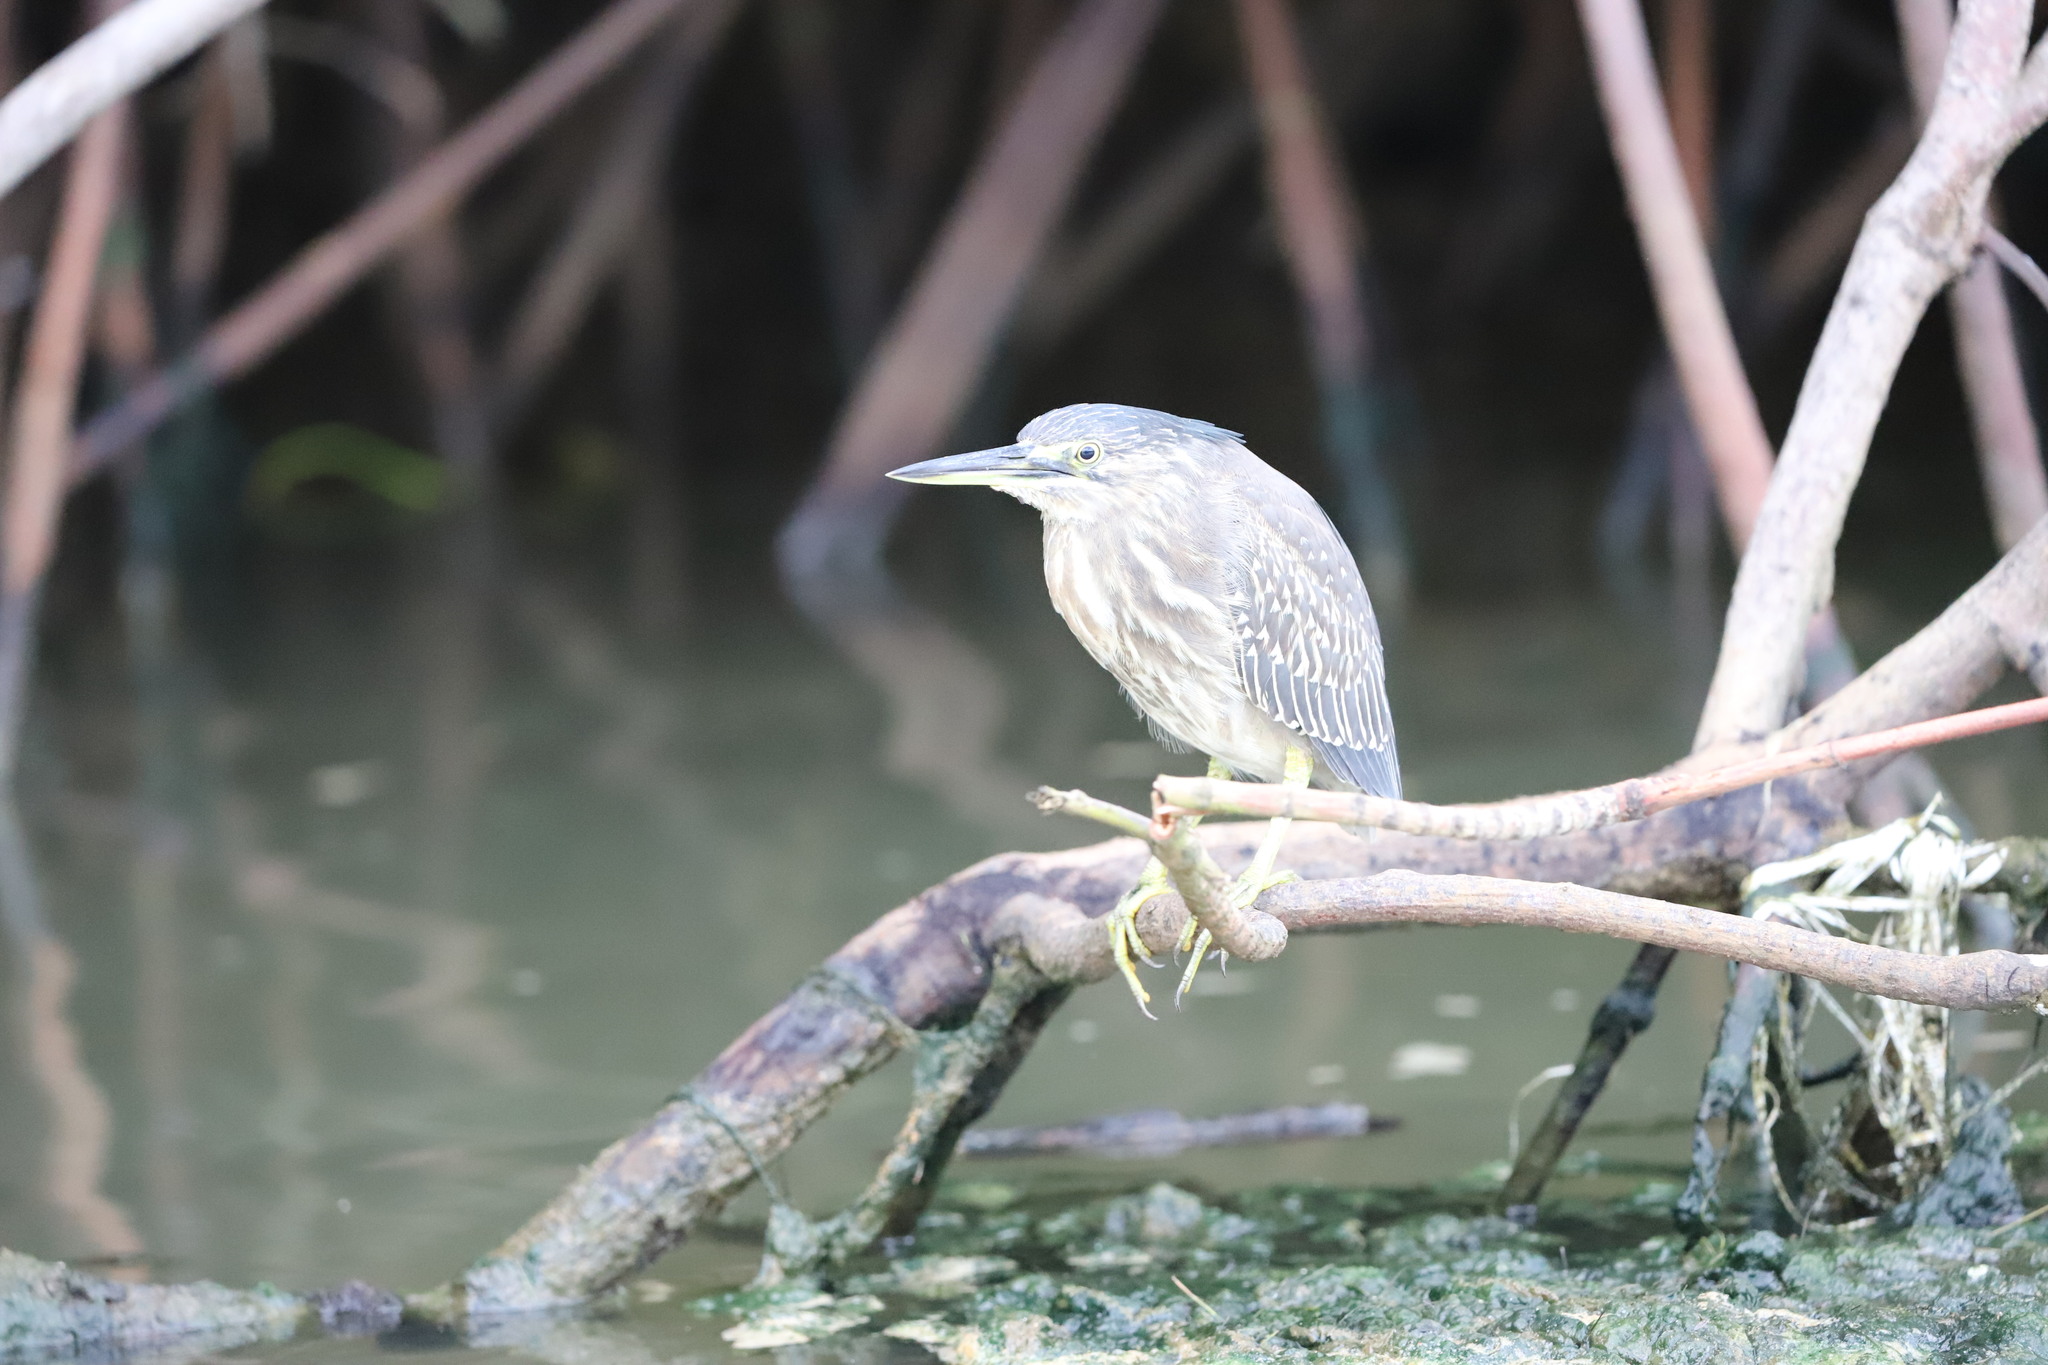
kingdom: Animalia
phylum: Chordata
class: Aves
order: Pelecaniformes
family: Ardeidae
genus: Butorides
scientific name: Butorides striata
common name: Striated heron
